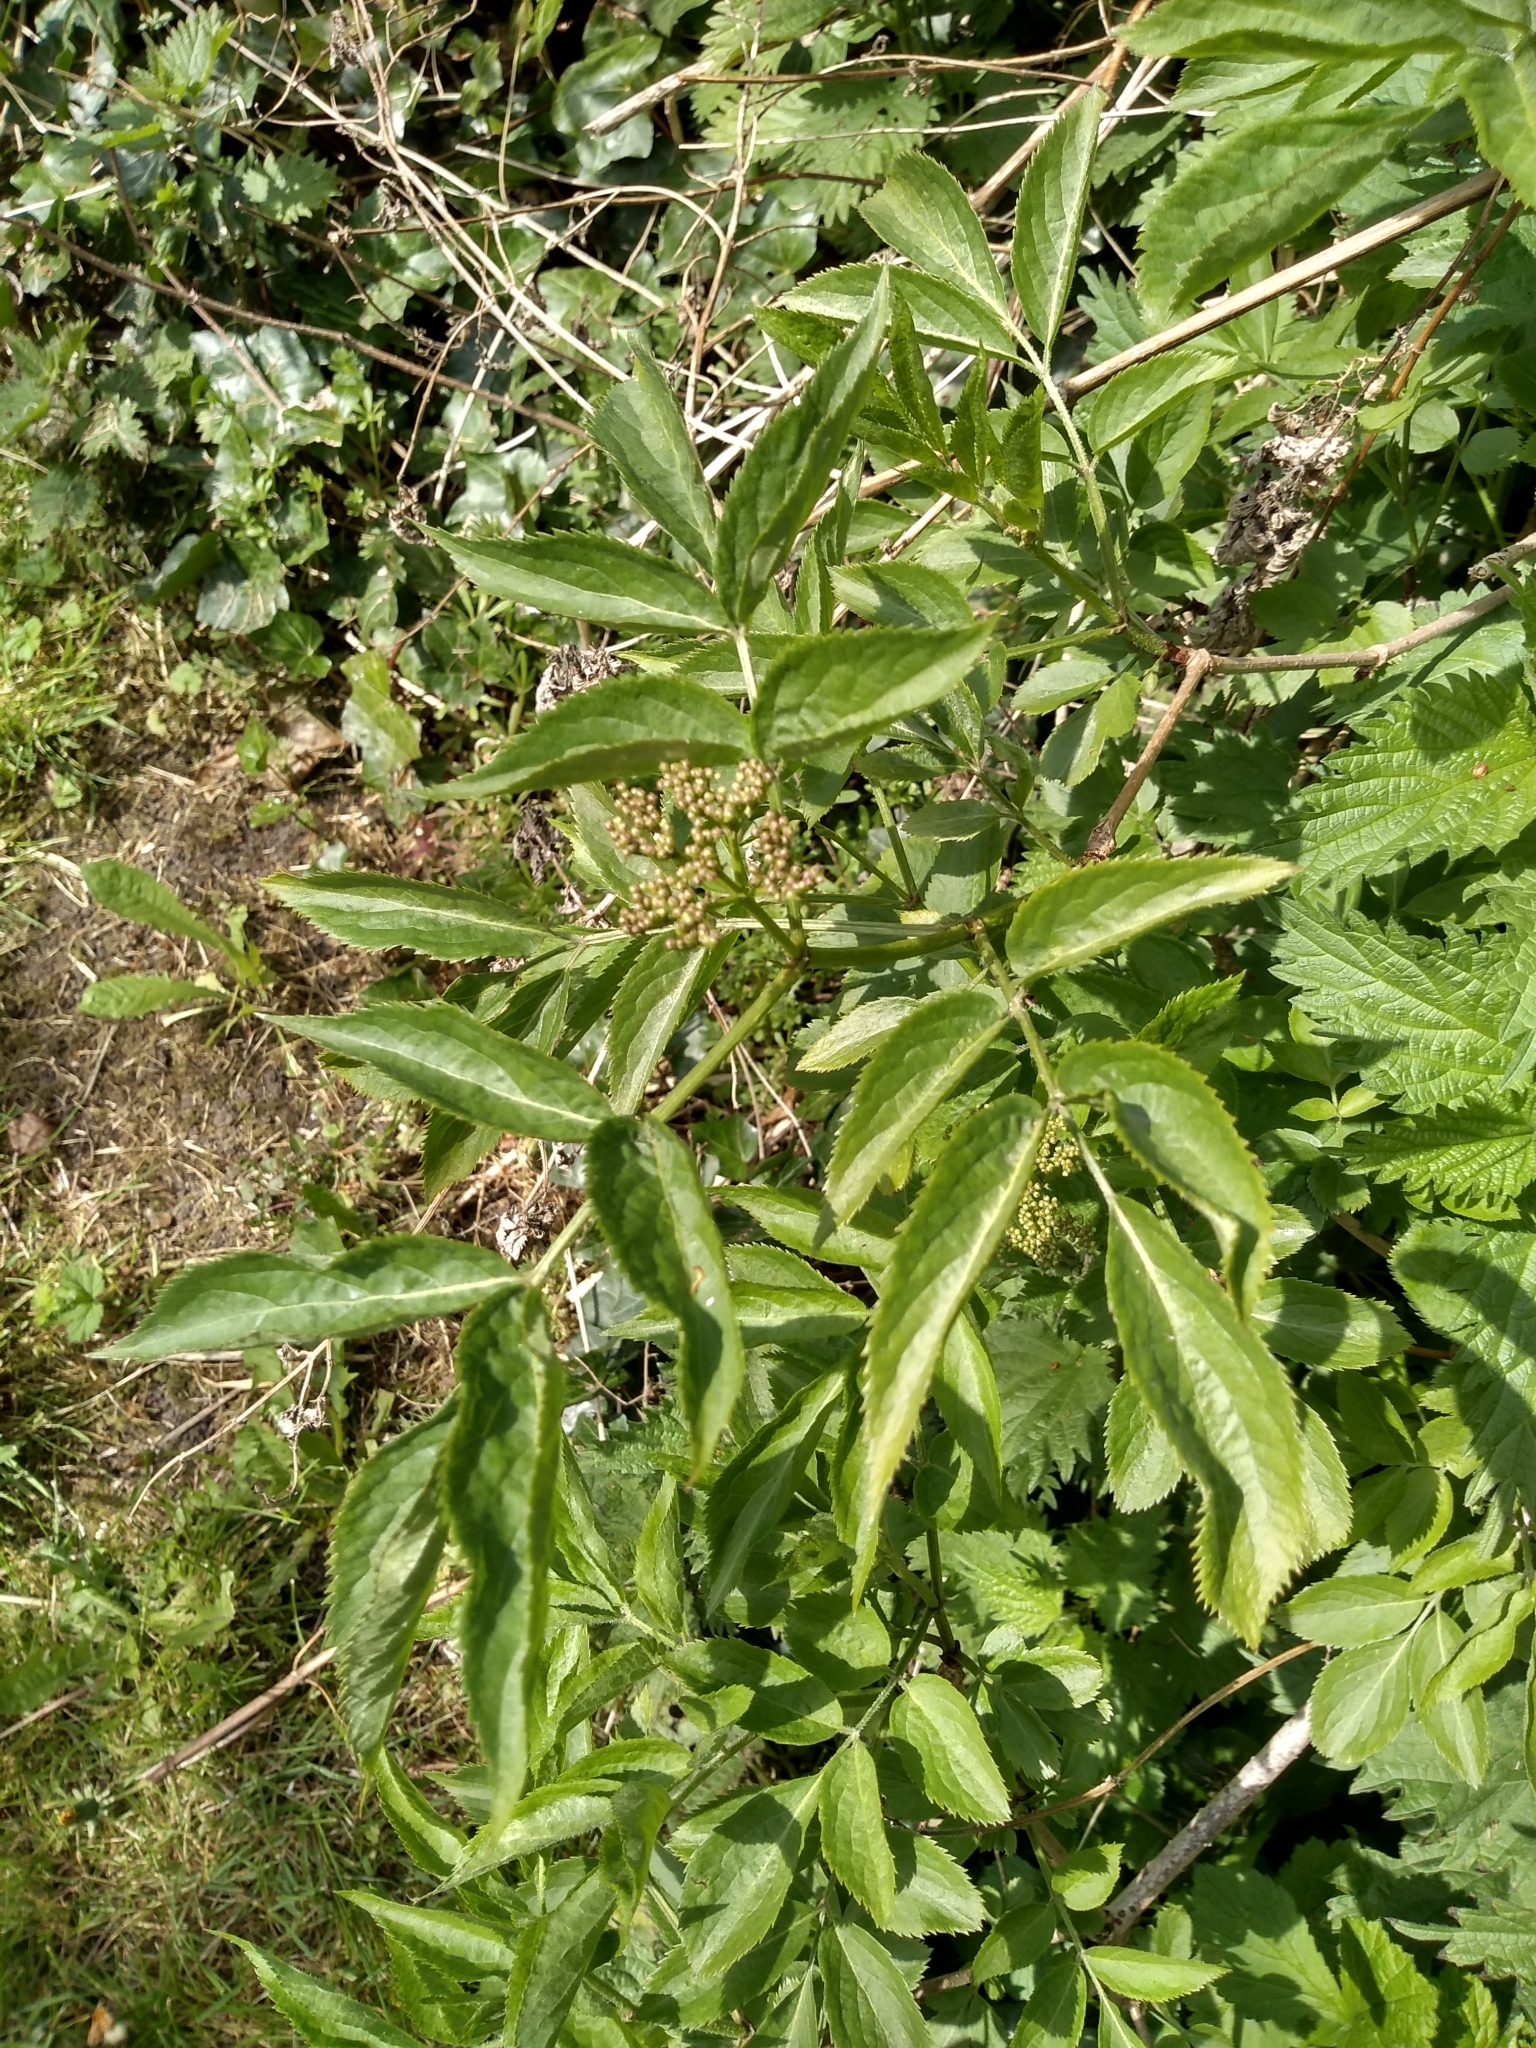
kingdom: Plantae
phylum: Tracheophyta
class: Magnoliopsida
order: Dipsacales
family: Viburnaceae
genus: Sambucus
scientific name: Sambucus nigra
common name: Elder
